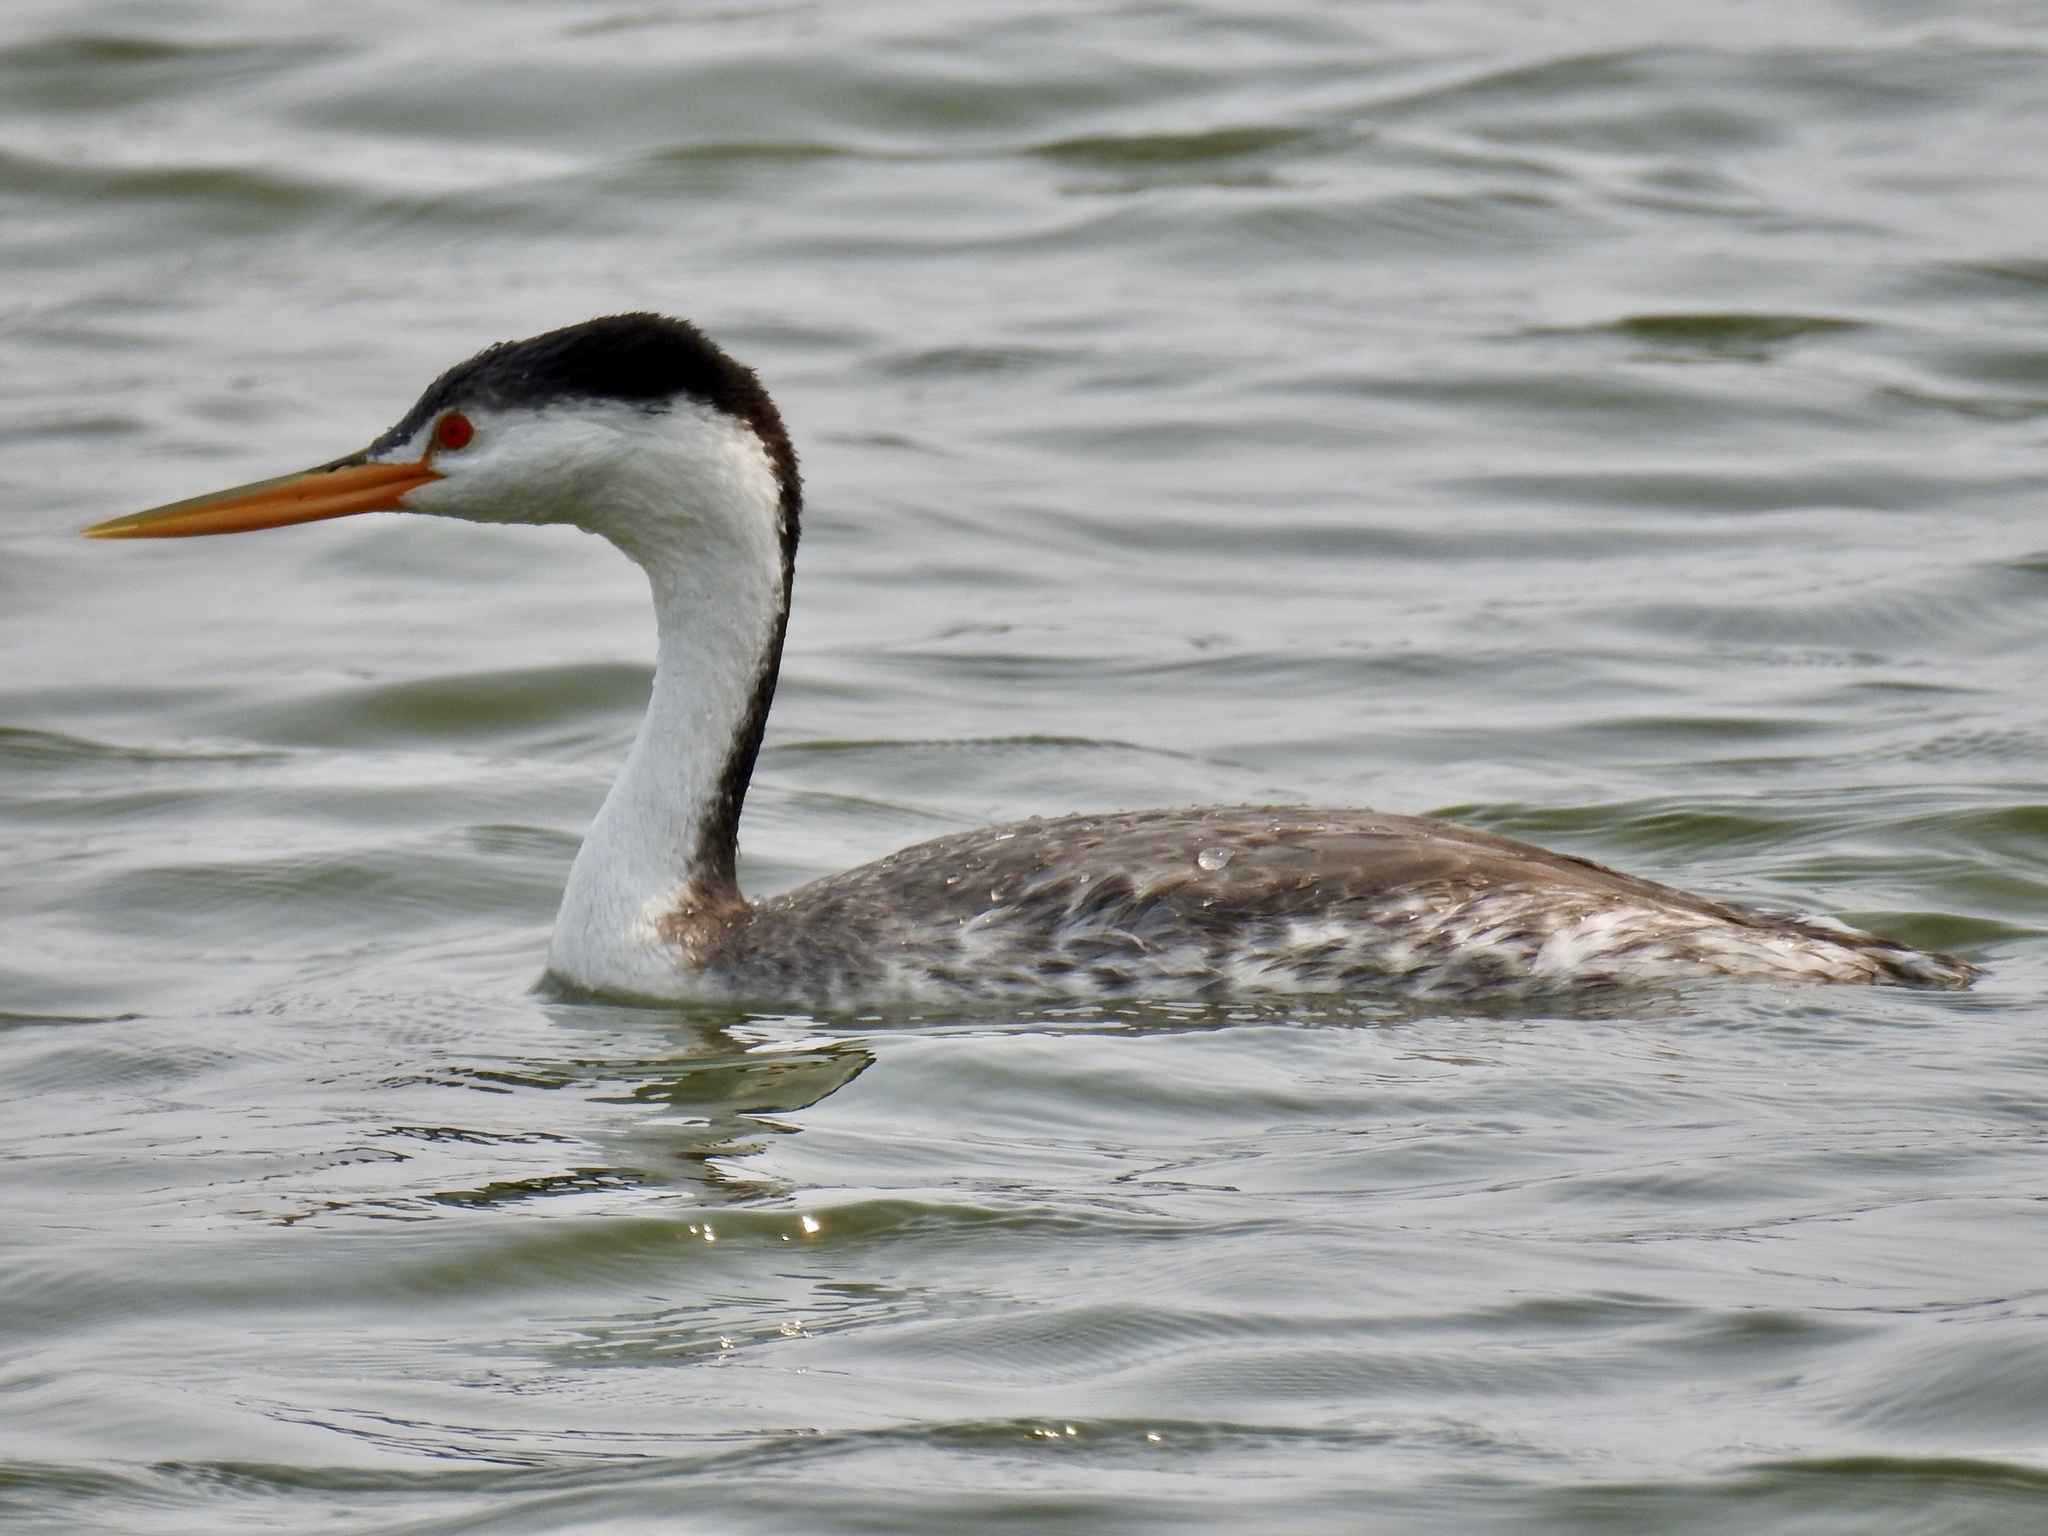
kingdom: Animalia
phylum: Chordata
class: Aves
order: Podicipediformes
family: Podicipedidae
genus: Aechmophorus
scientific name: Aechmophorus clarkii
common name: Clark's grebe
